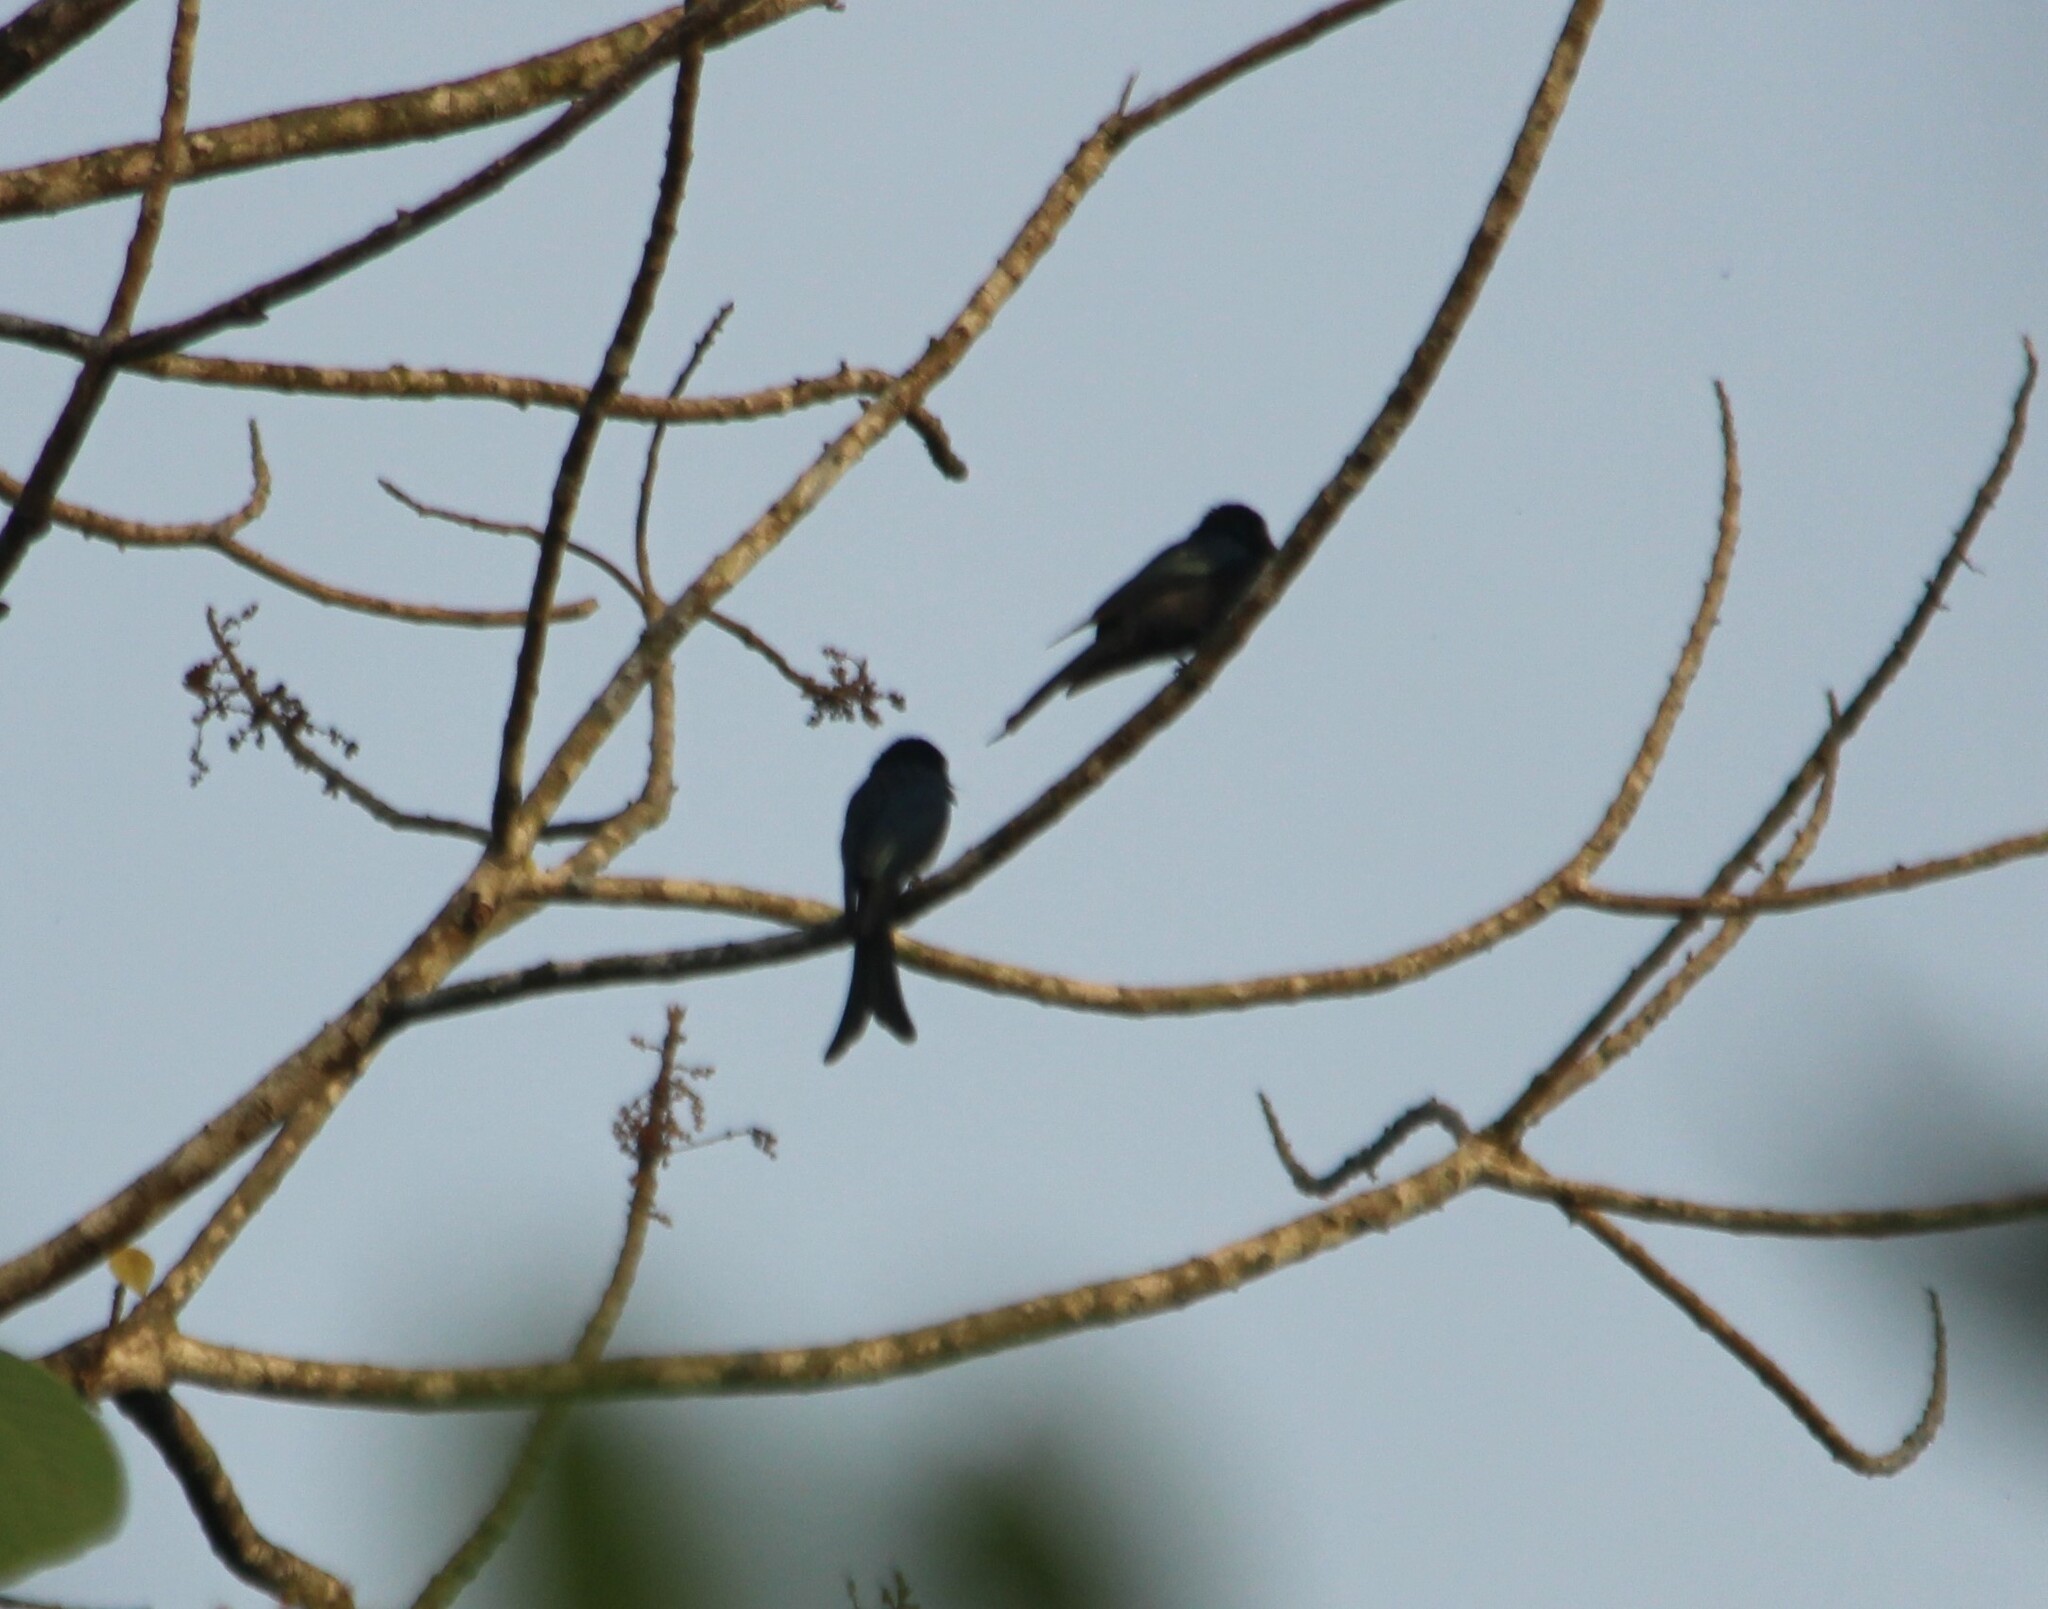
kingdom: Animalia
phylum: Chordata
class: Aves
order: Passeriformes
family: Dicruridae
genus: Dicrurus
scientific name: Dicrurus macrocercus
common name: Black drongo
